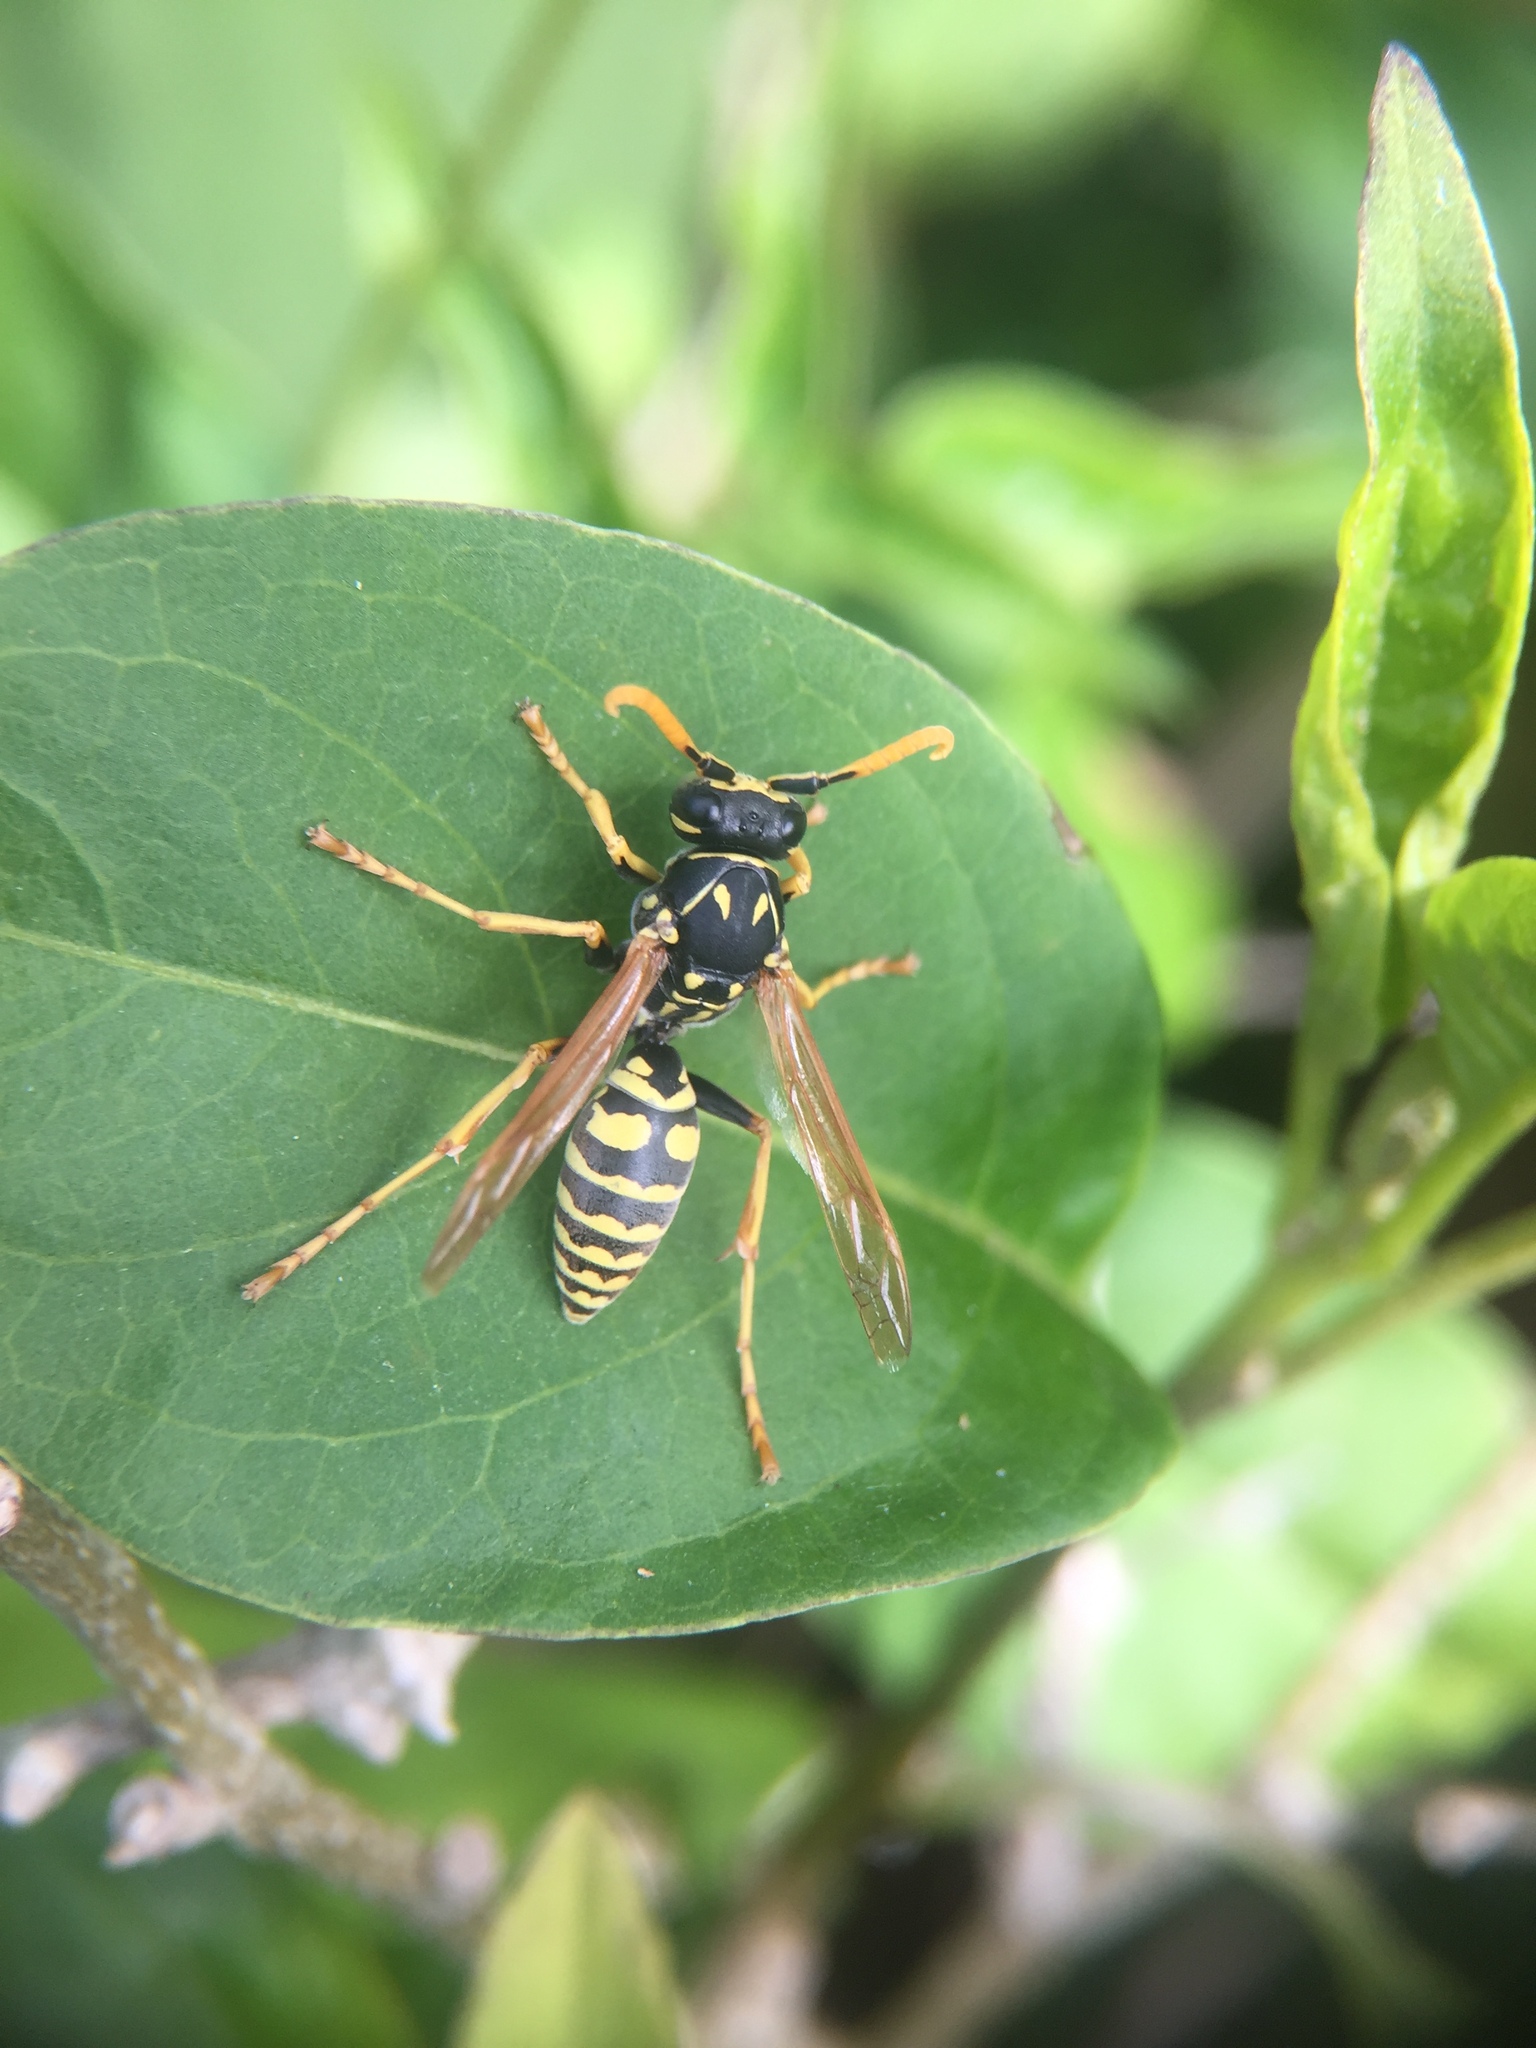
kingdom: Animalia
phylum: Arthropoda
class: Insecta
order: Hymenoptera
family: Eumenidae
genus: Polistes
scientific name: Polistes dominula
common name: Paper wasp
